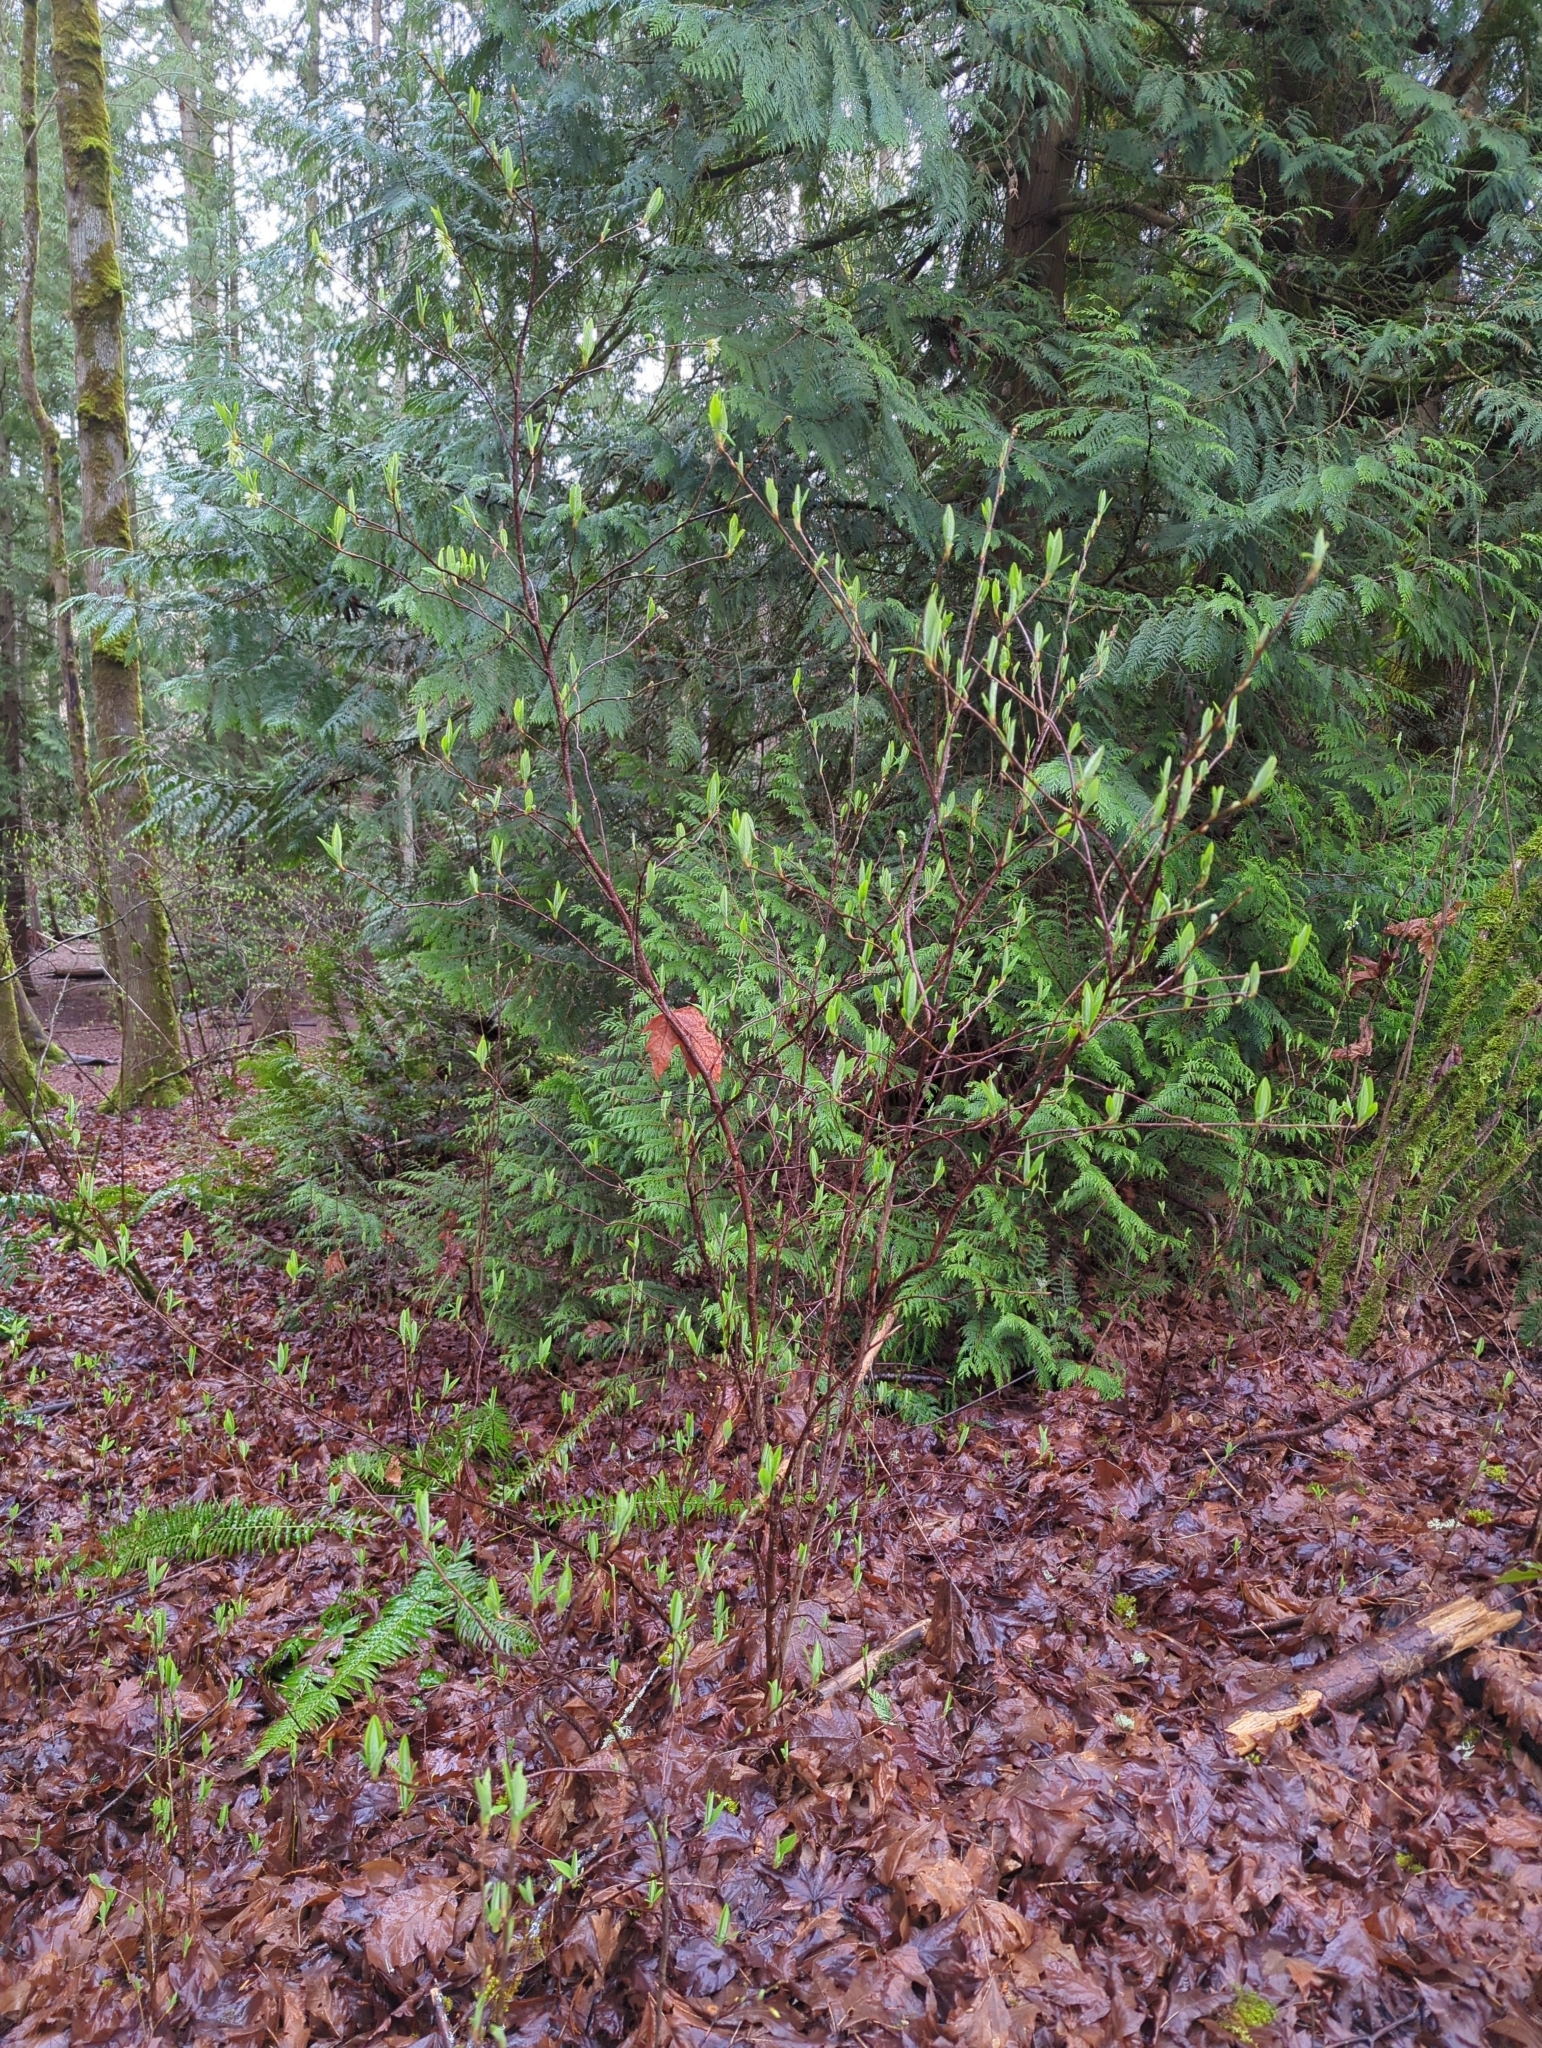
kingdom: Plantae
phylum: Tracheophyta
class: Magnoliopsida
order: Rosales
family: Rosaceae
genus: Oemleria
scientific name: Oemleria cerasiformis
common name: Osoberry
